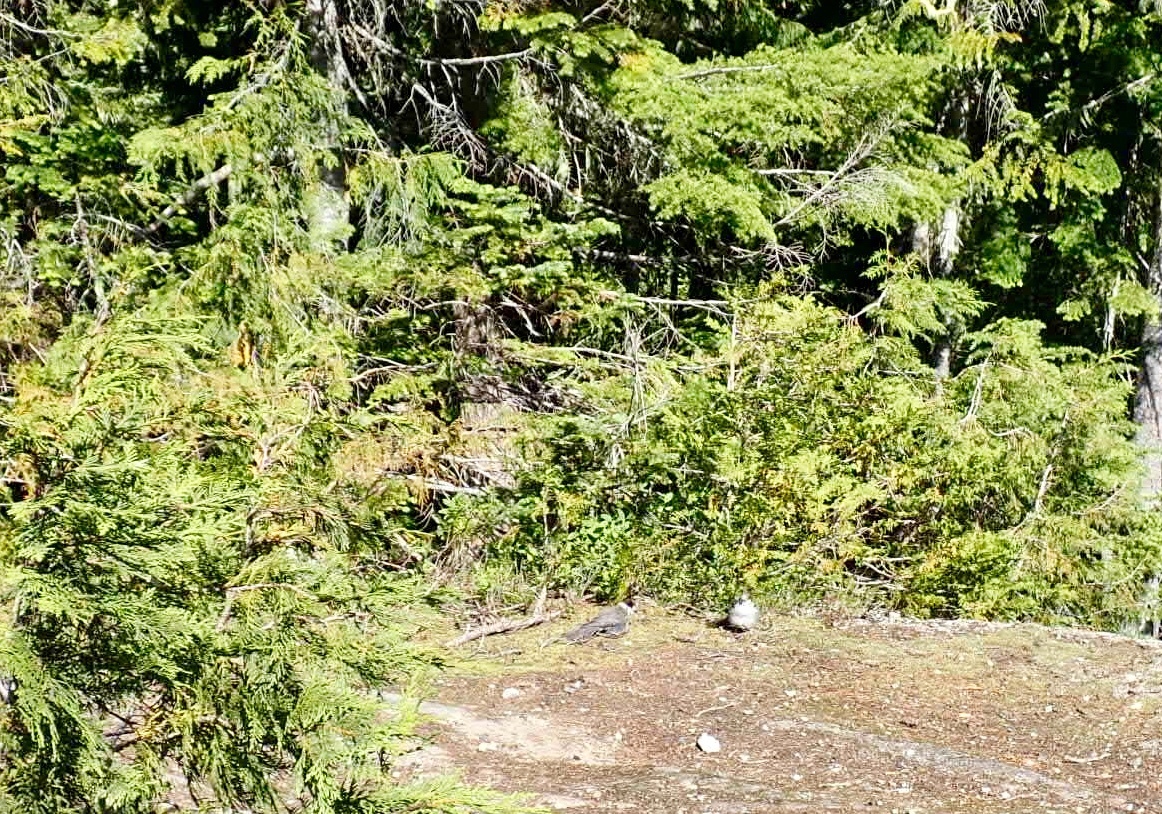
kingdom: Animalia
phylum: Chordata
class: Aves
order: Passeriformes
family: Corvidae
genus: Perisoreus
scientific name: Perisoreus canadensis
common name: Gray jay
